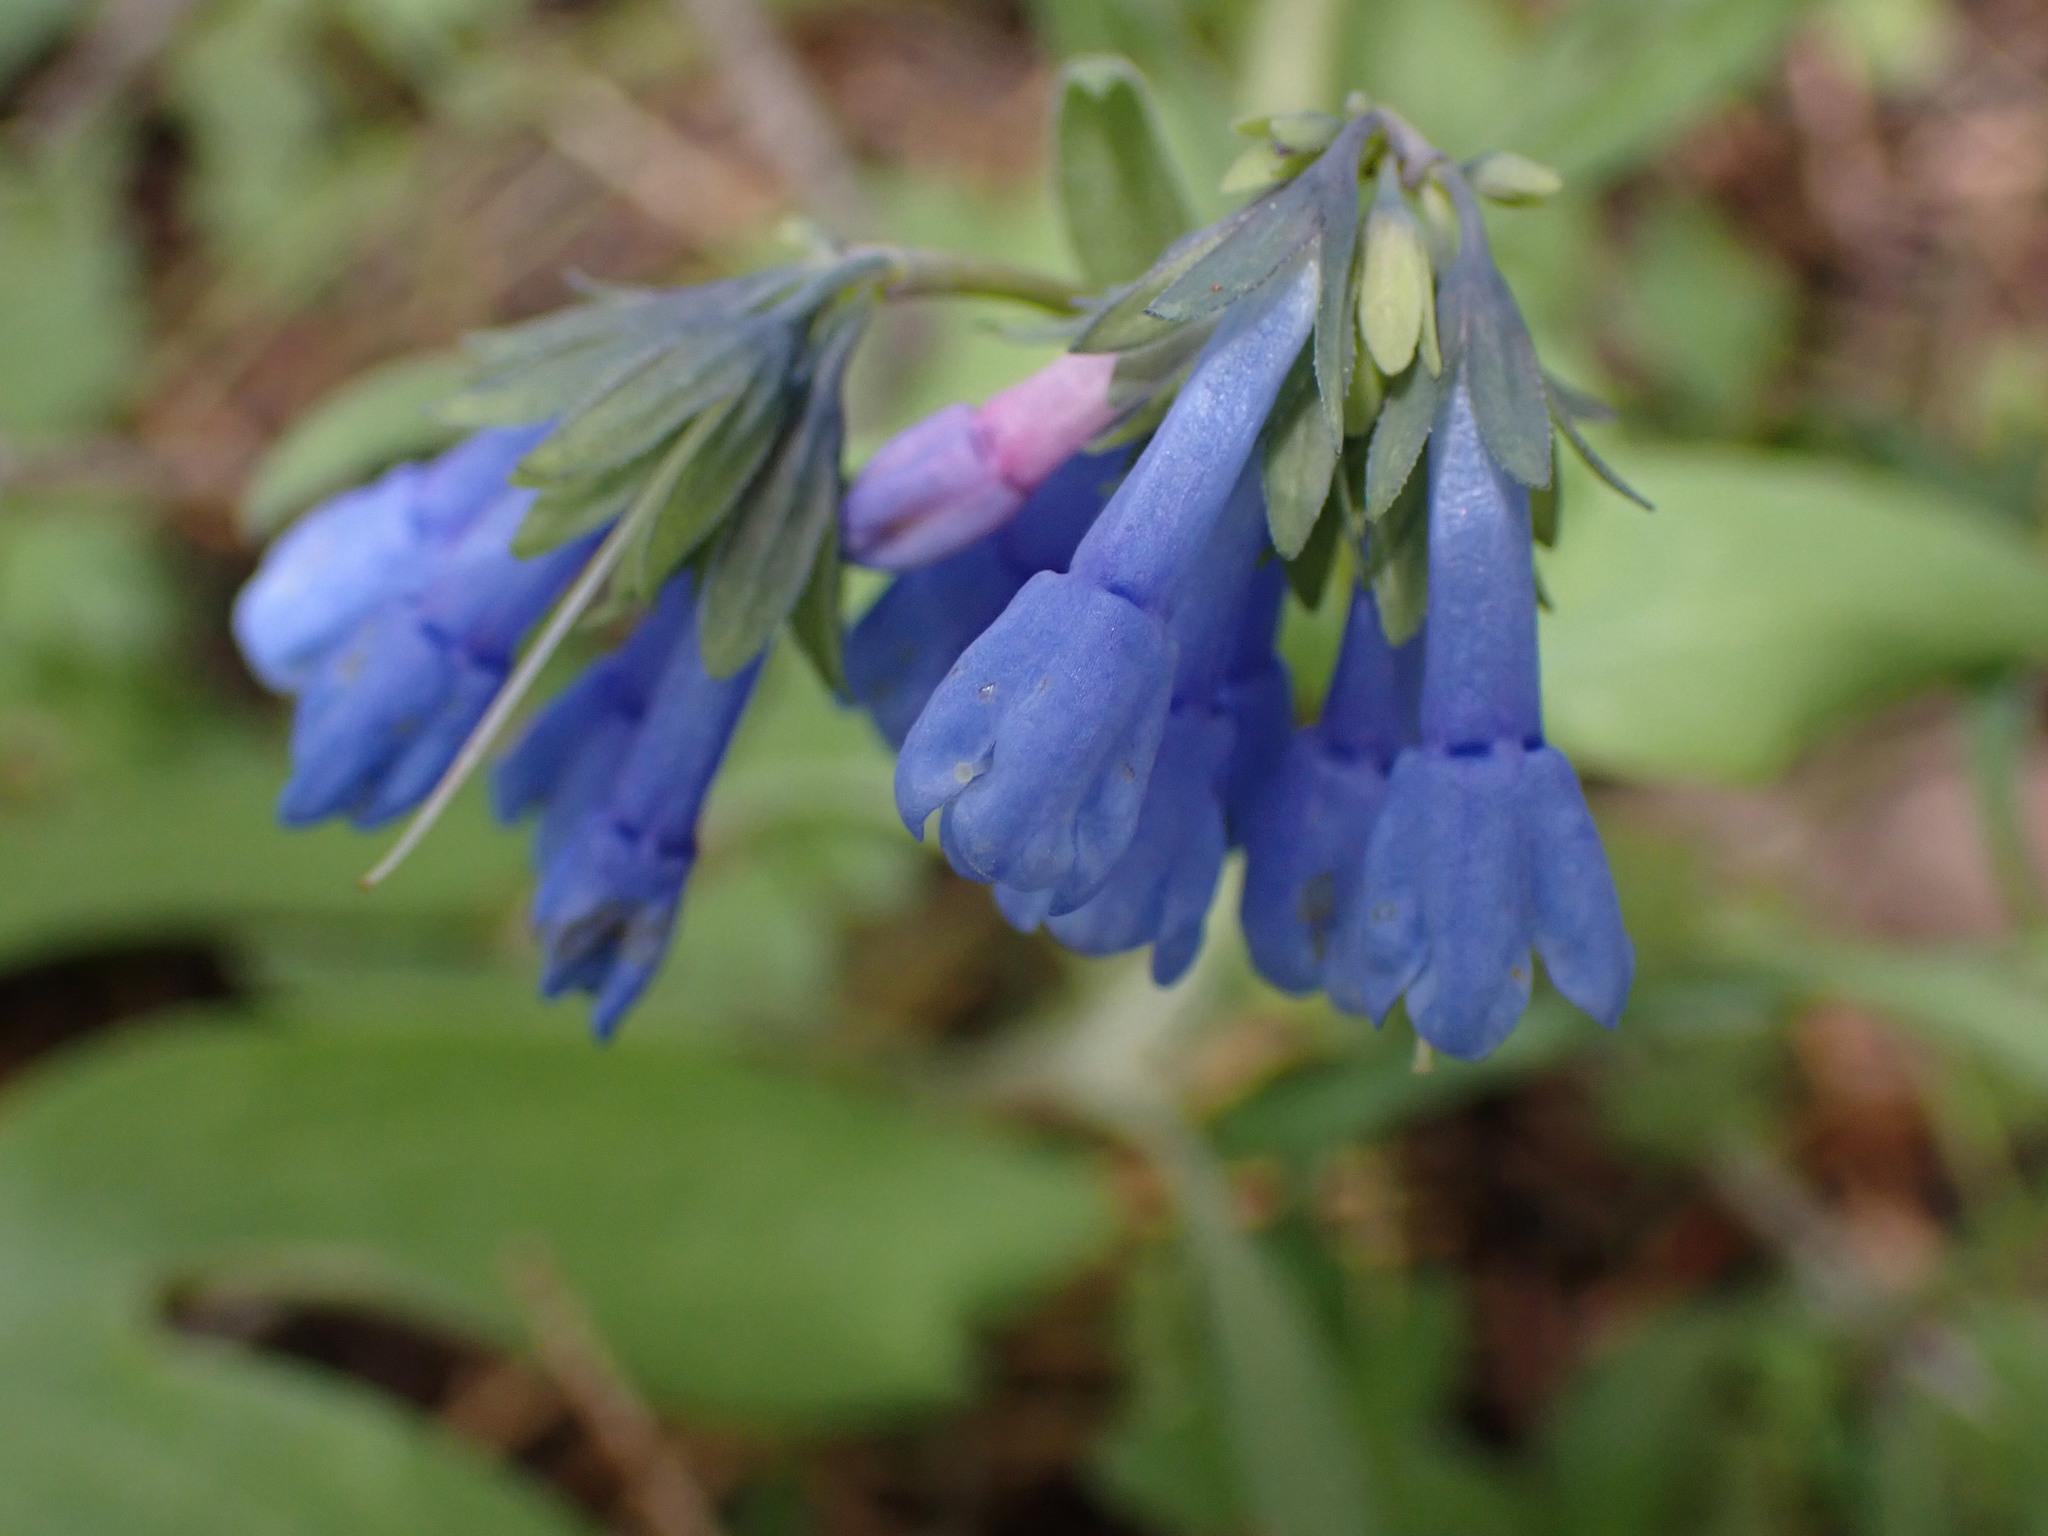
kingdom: Plantae
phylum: Tracheophyta
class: Magnoliopsida
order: Boraginales
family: Boraginaceae
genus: Mertensia
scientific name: Mertensia longiflora
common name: Large-flowered bluebells
